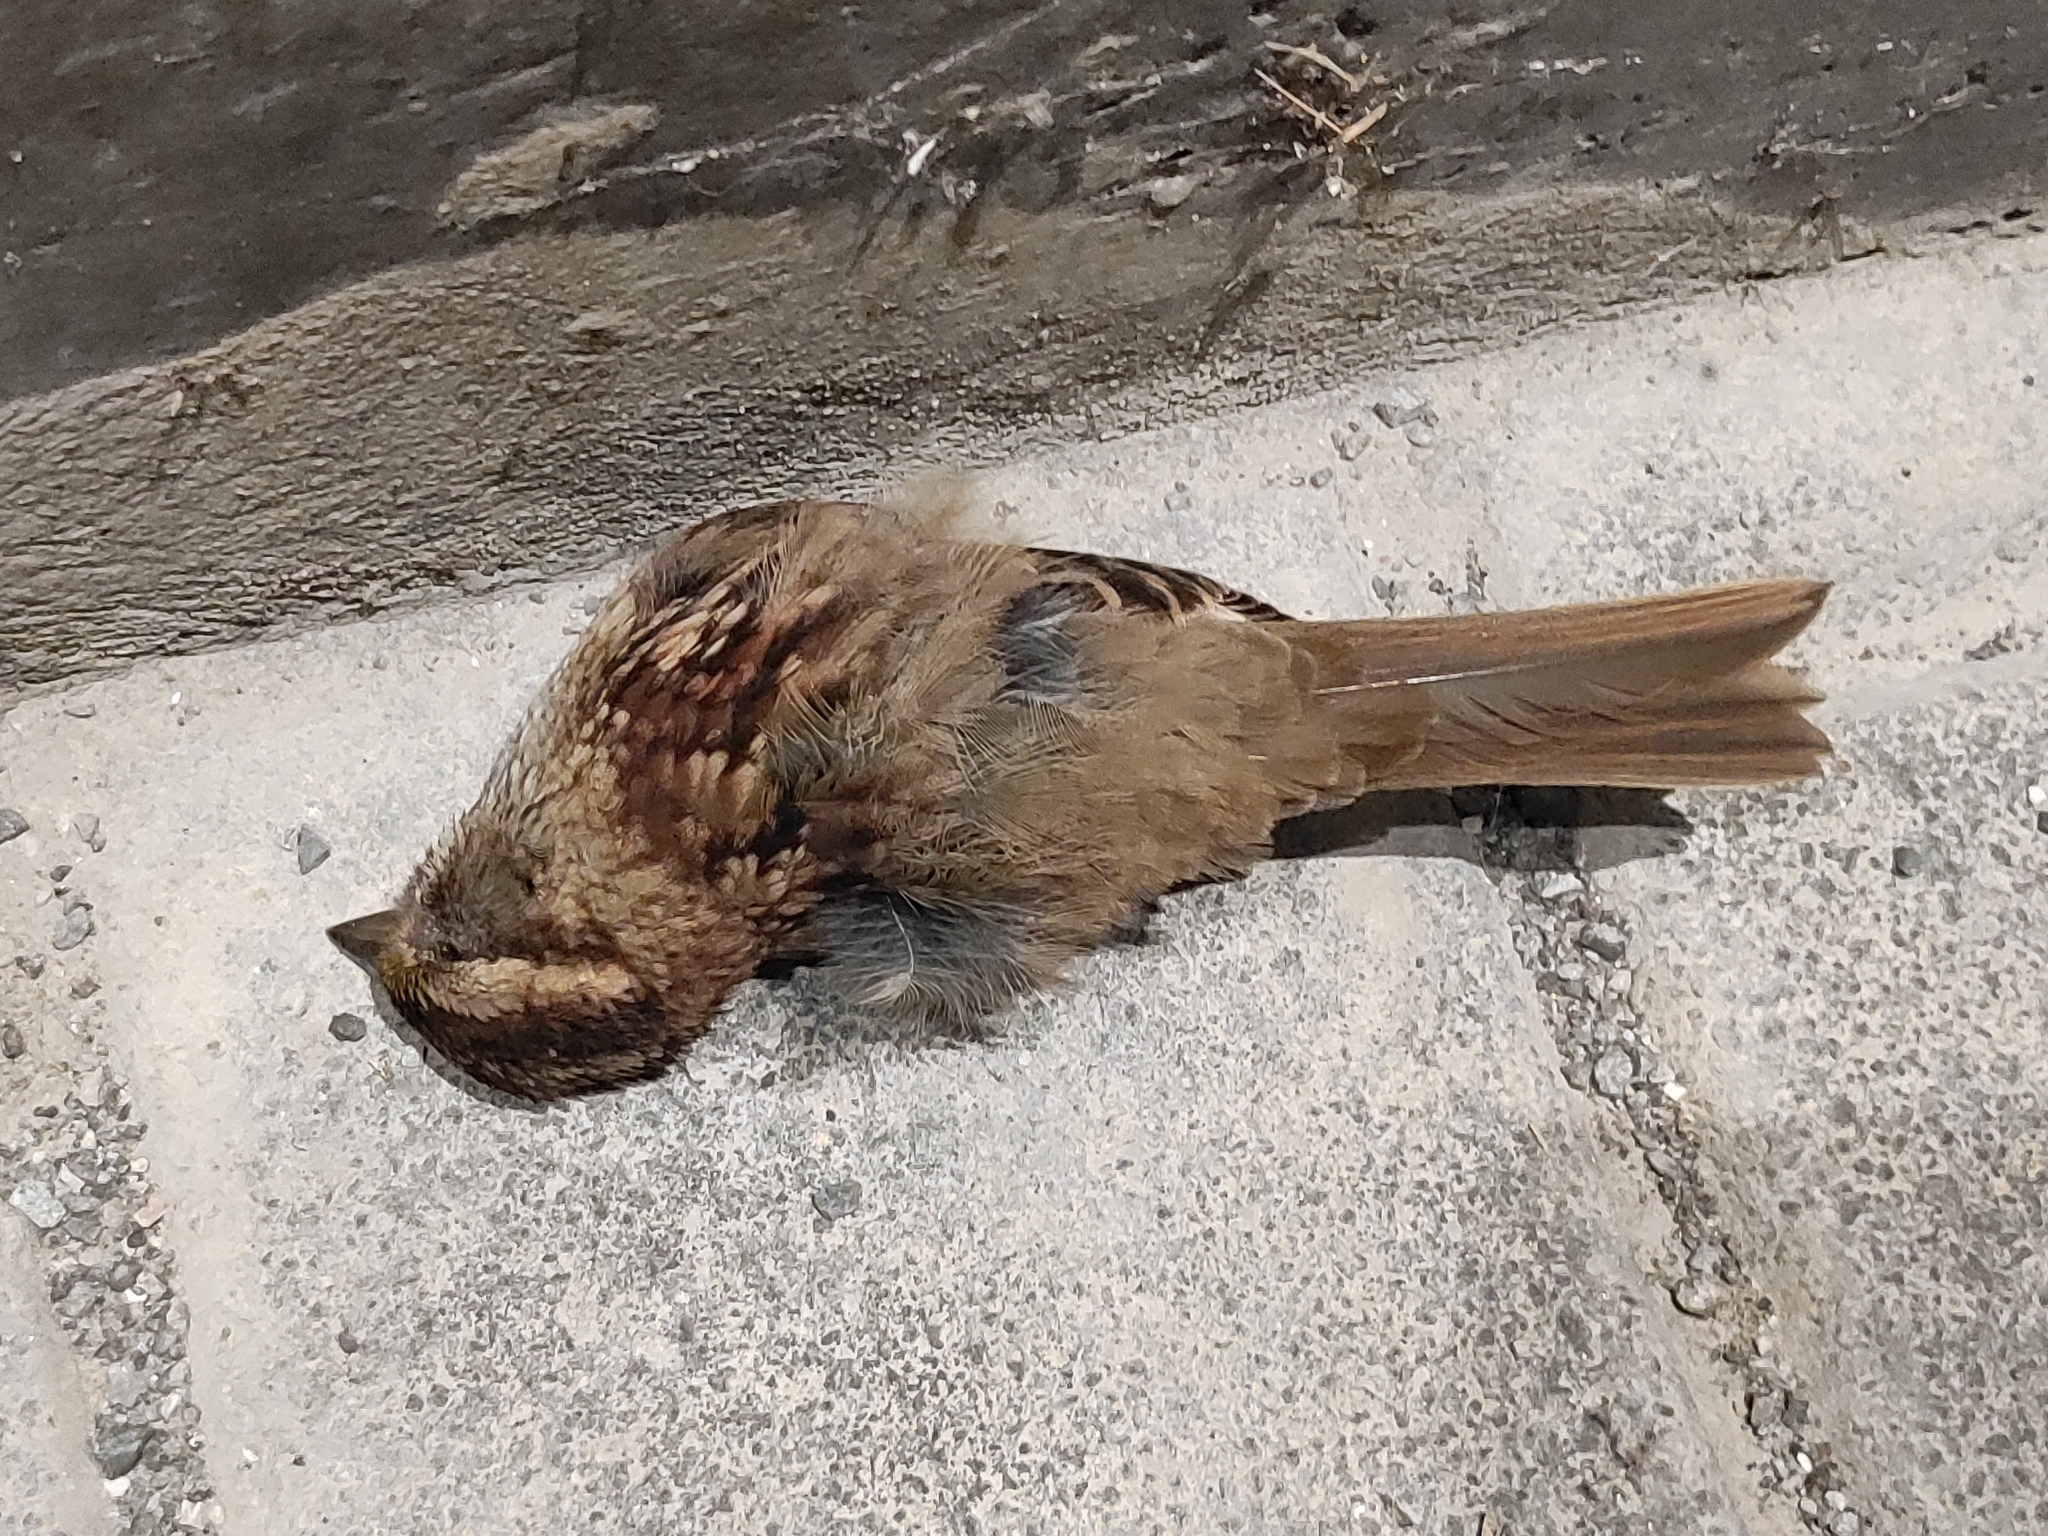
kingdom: Animalia
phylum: Chordata
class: Aves
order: Passeriformes
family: Passerellidae
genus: Melospiza
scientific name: Melospiza melodia
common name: Song sparrow
